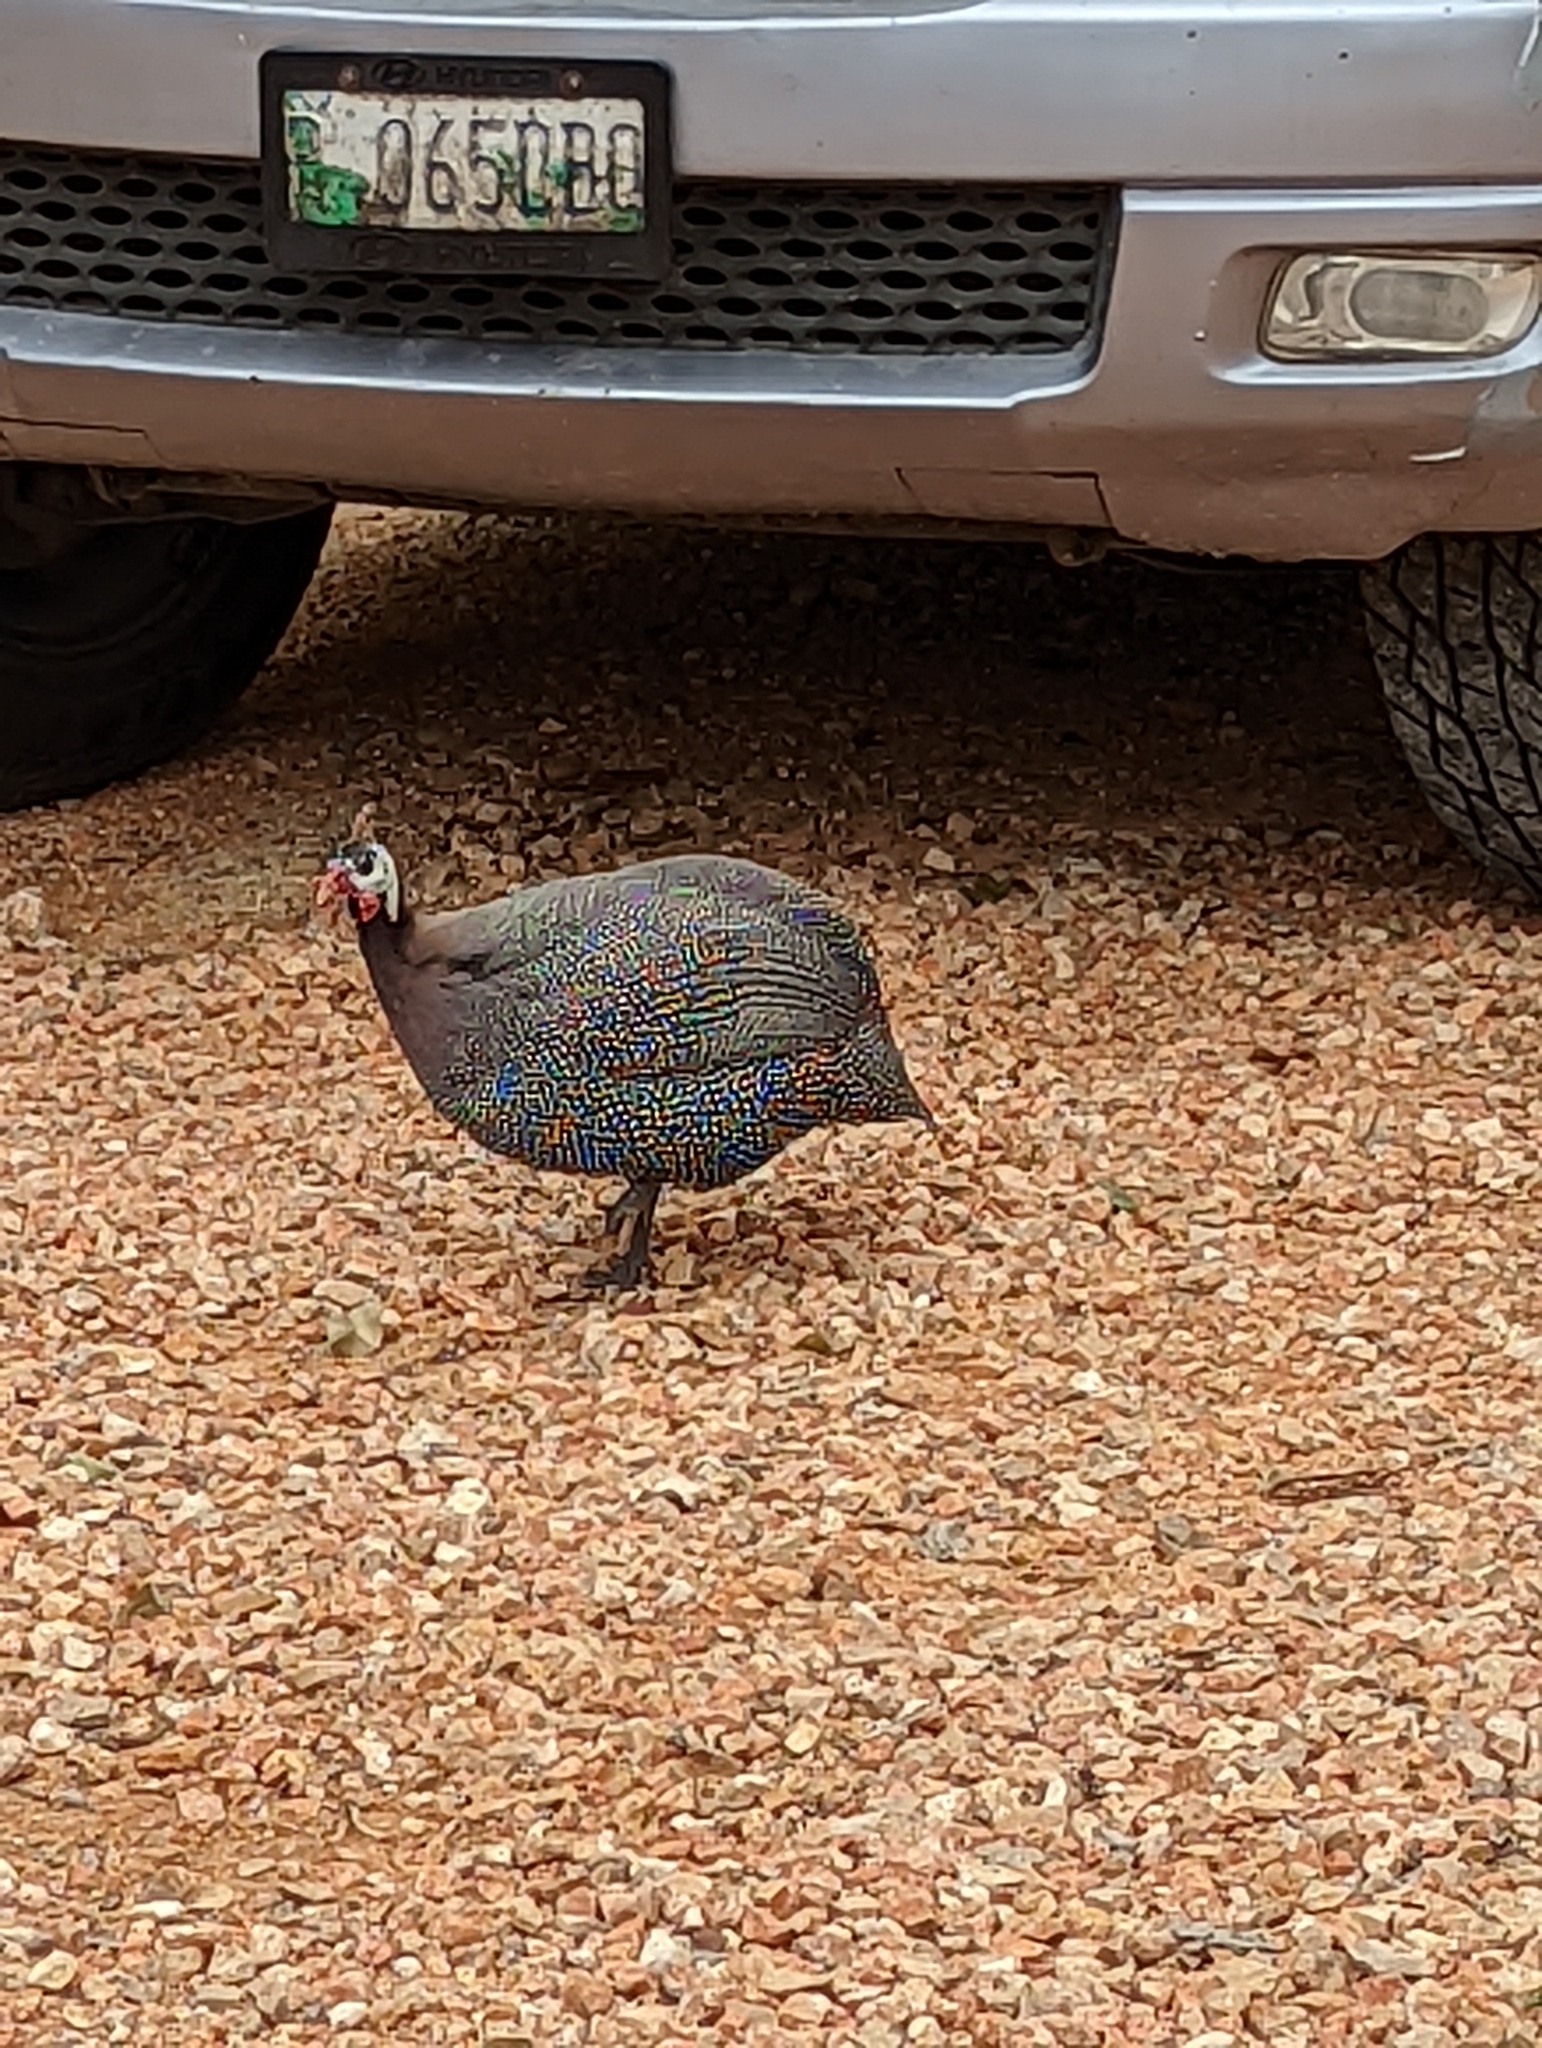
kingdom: Animalia
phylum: Chordata
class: Aves
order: Galliformes
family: Numididae
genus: Numida
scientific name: Numida meleagris
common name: Helmeted guineafowl
